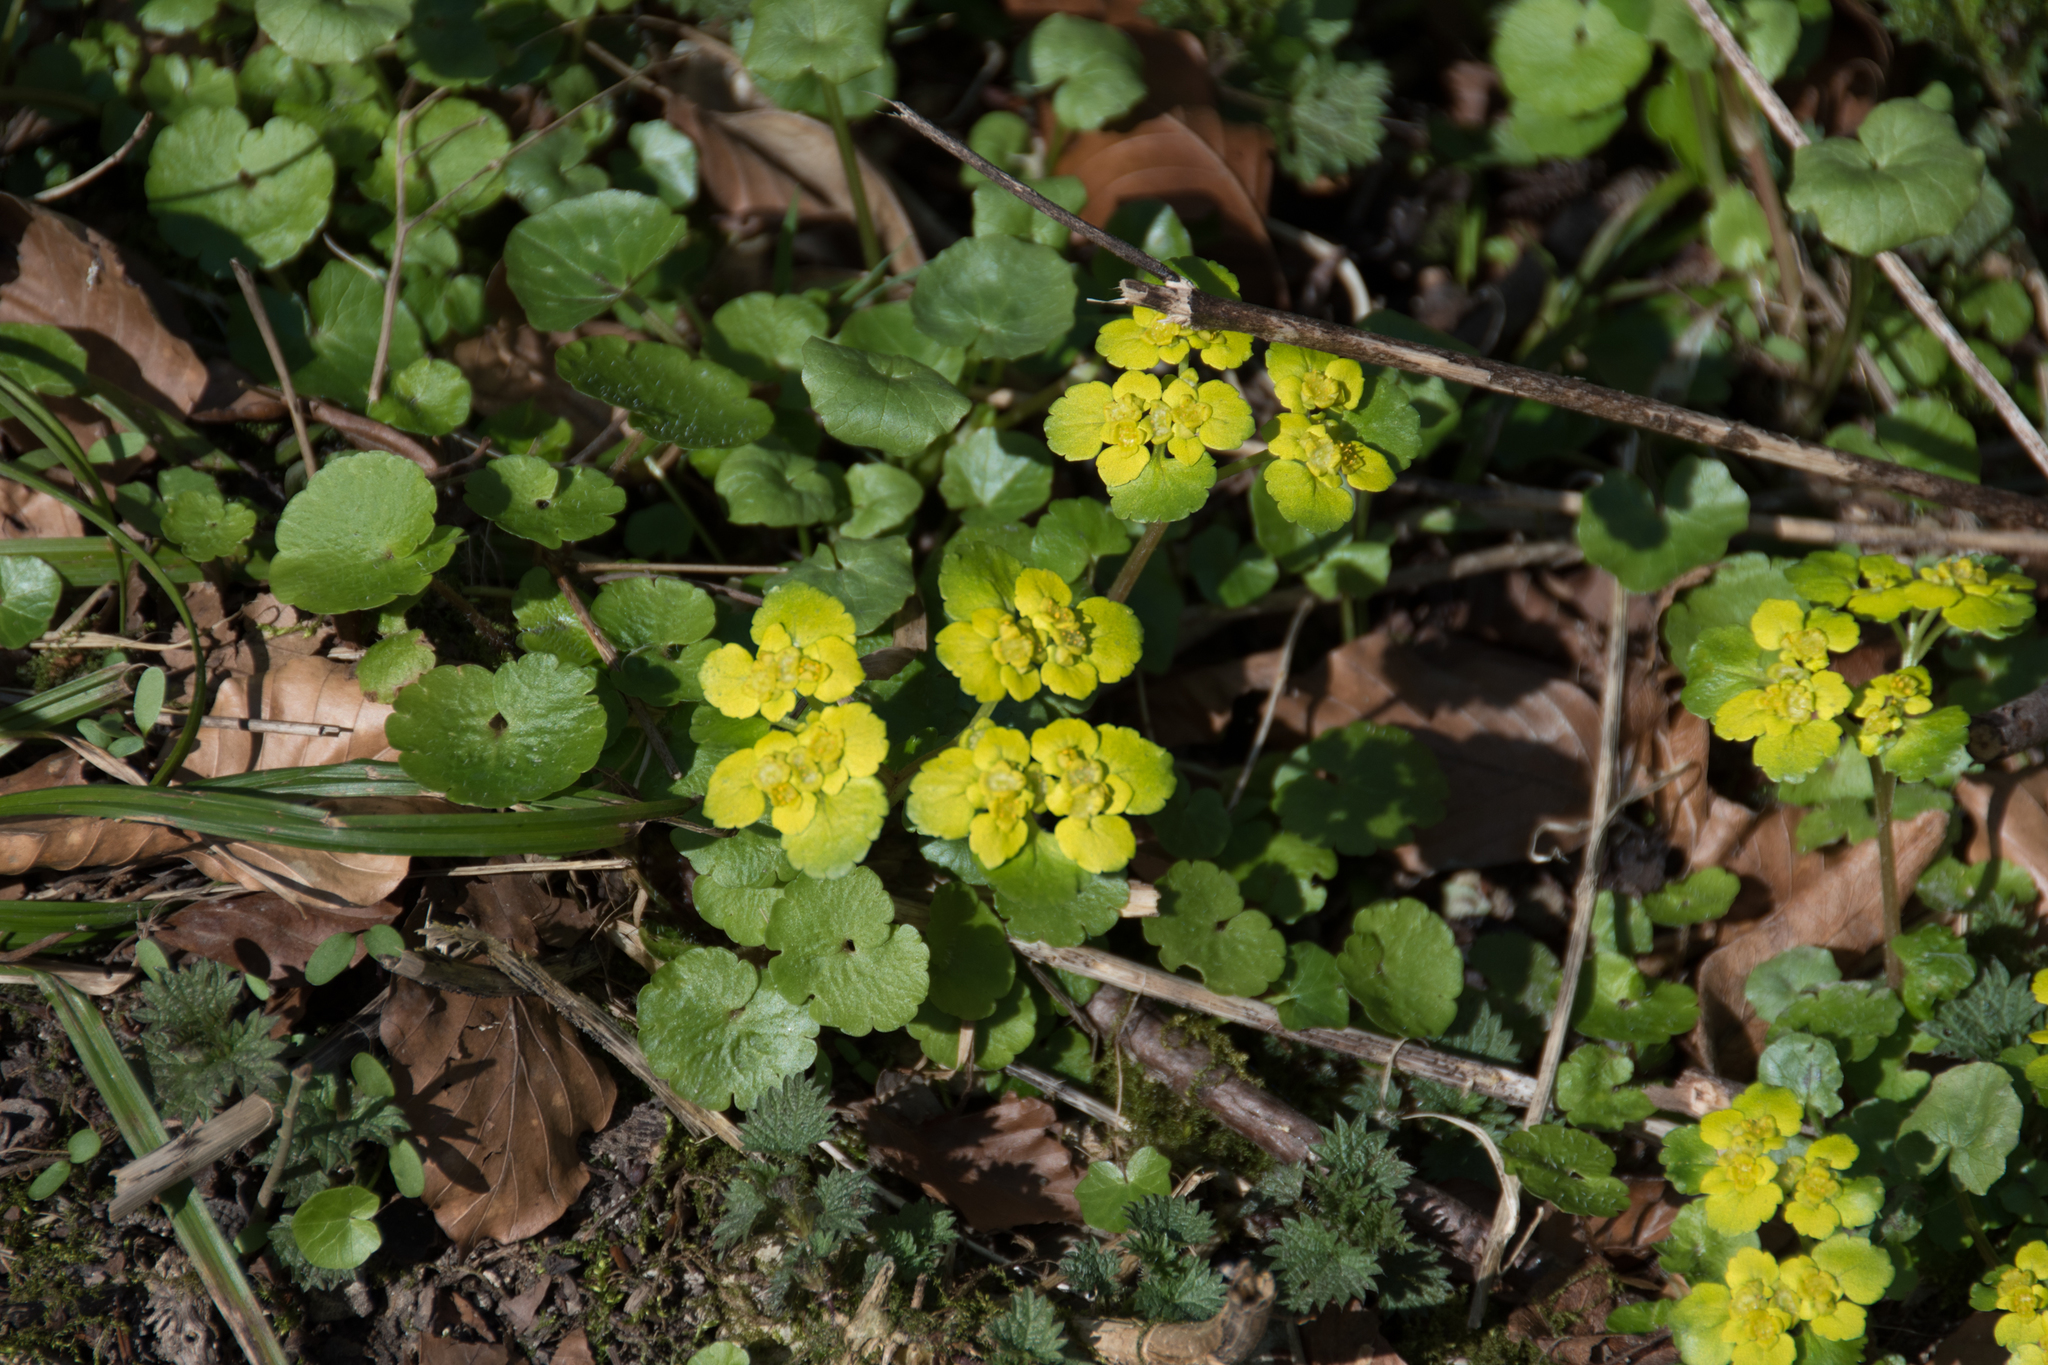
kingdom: Plantae
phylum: Tracheophyta
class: Magnoliopsida
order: Saxifragales
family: Saxifragaceae
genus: Chrysosplenium
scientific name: Chrysosplenium alternifolium
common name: Alternate-leaved golden-saxifrage
